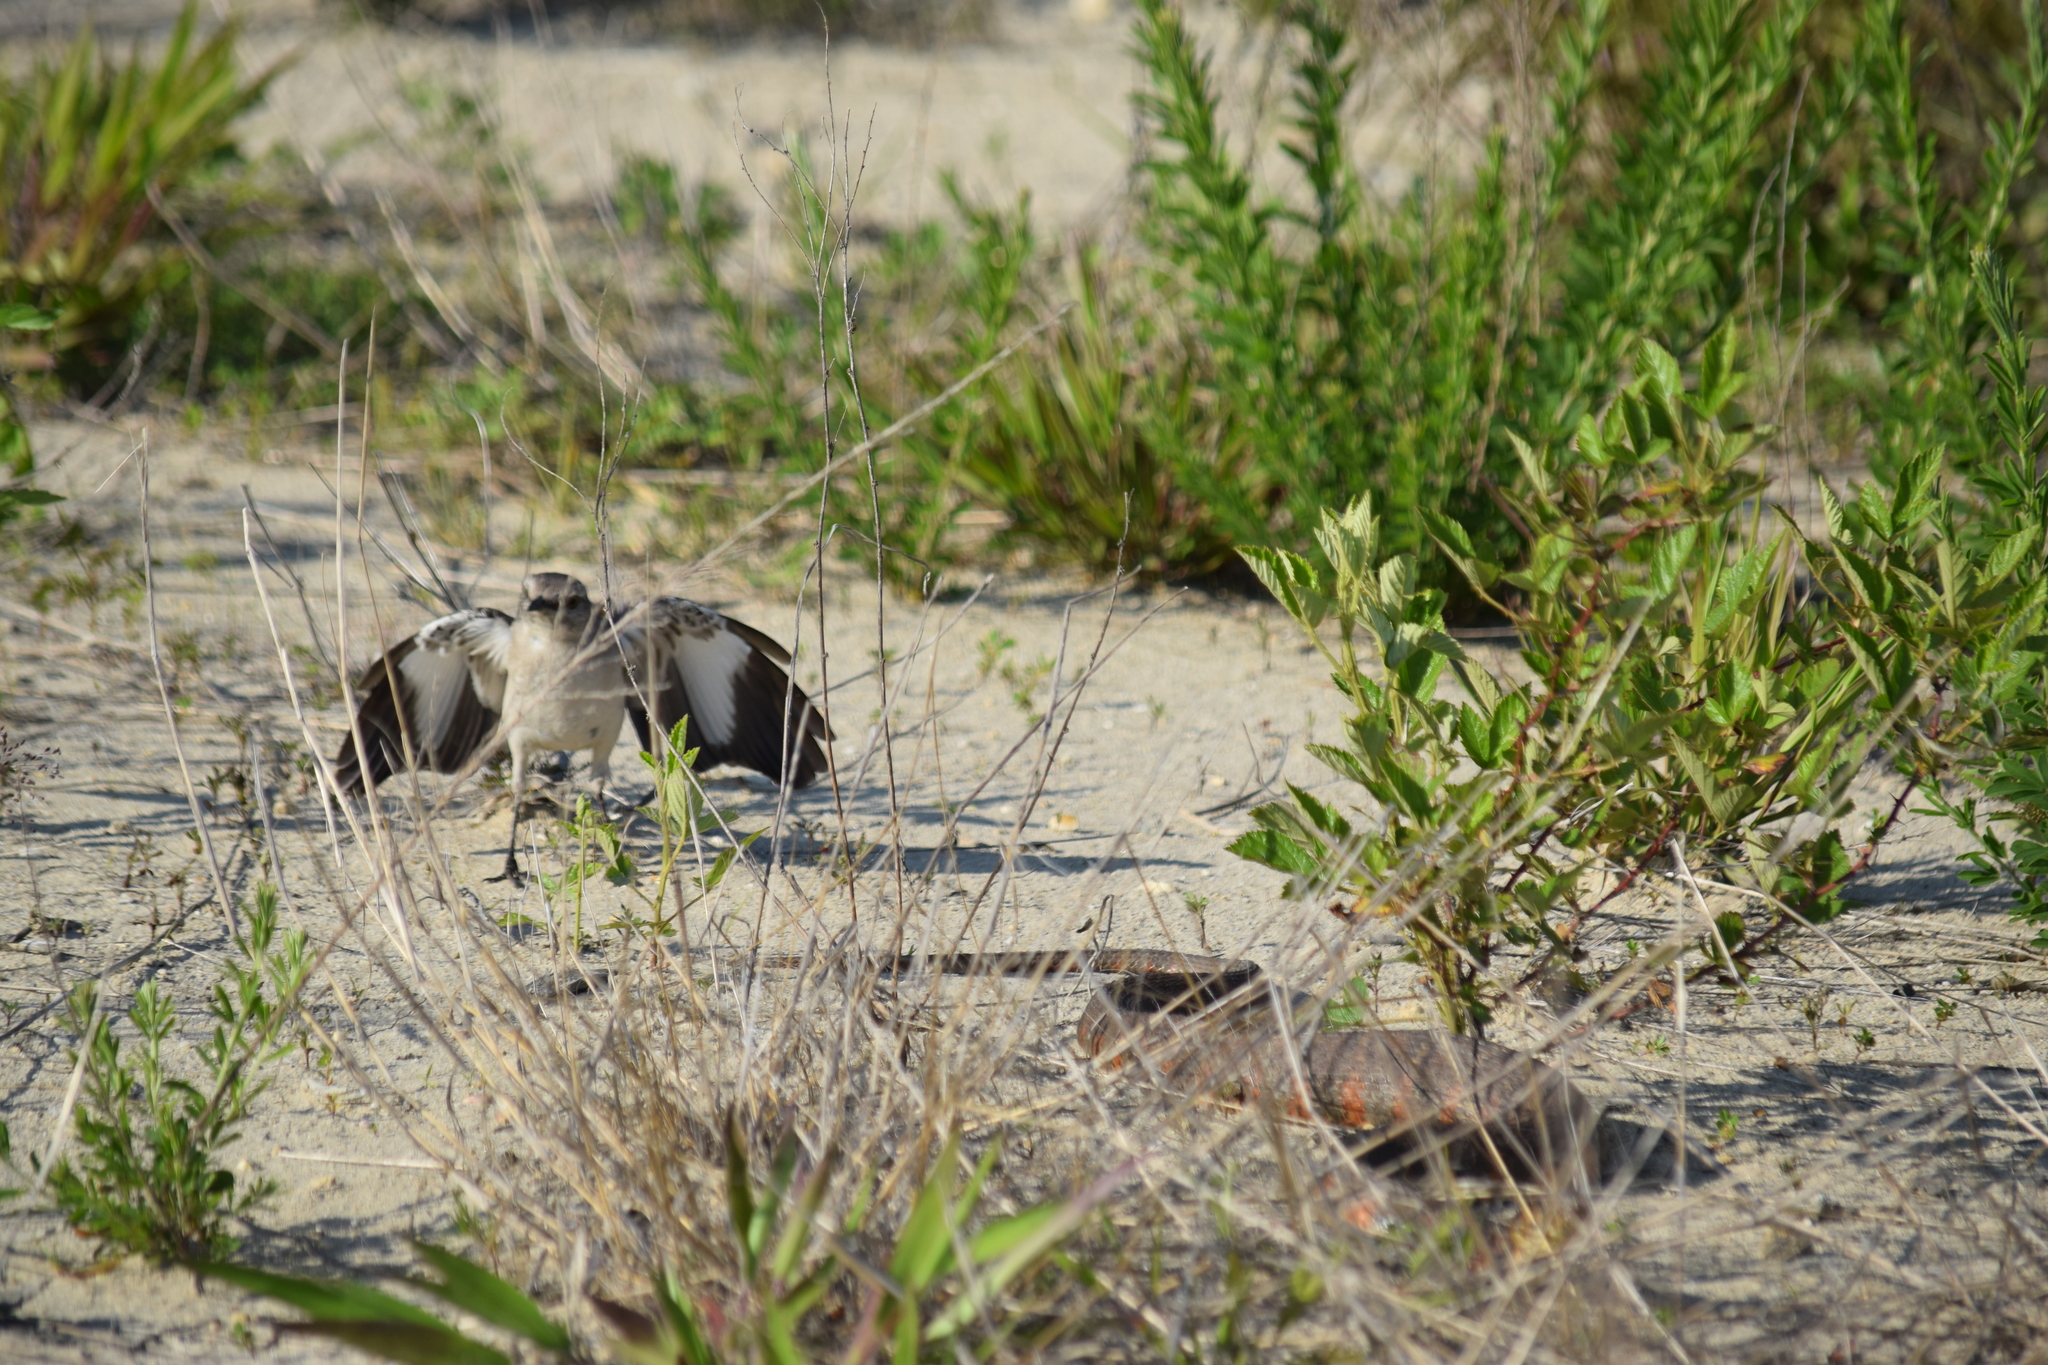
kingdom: Animalia
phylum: Chordata
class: Aves
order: Passeriformes
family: Mimidae
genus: Mimus
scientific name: Mimus polyglottos
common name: Northern mockingbird
